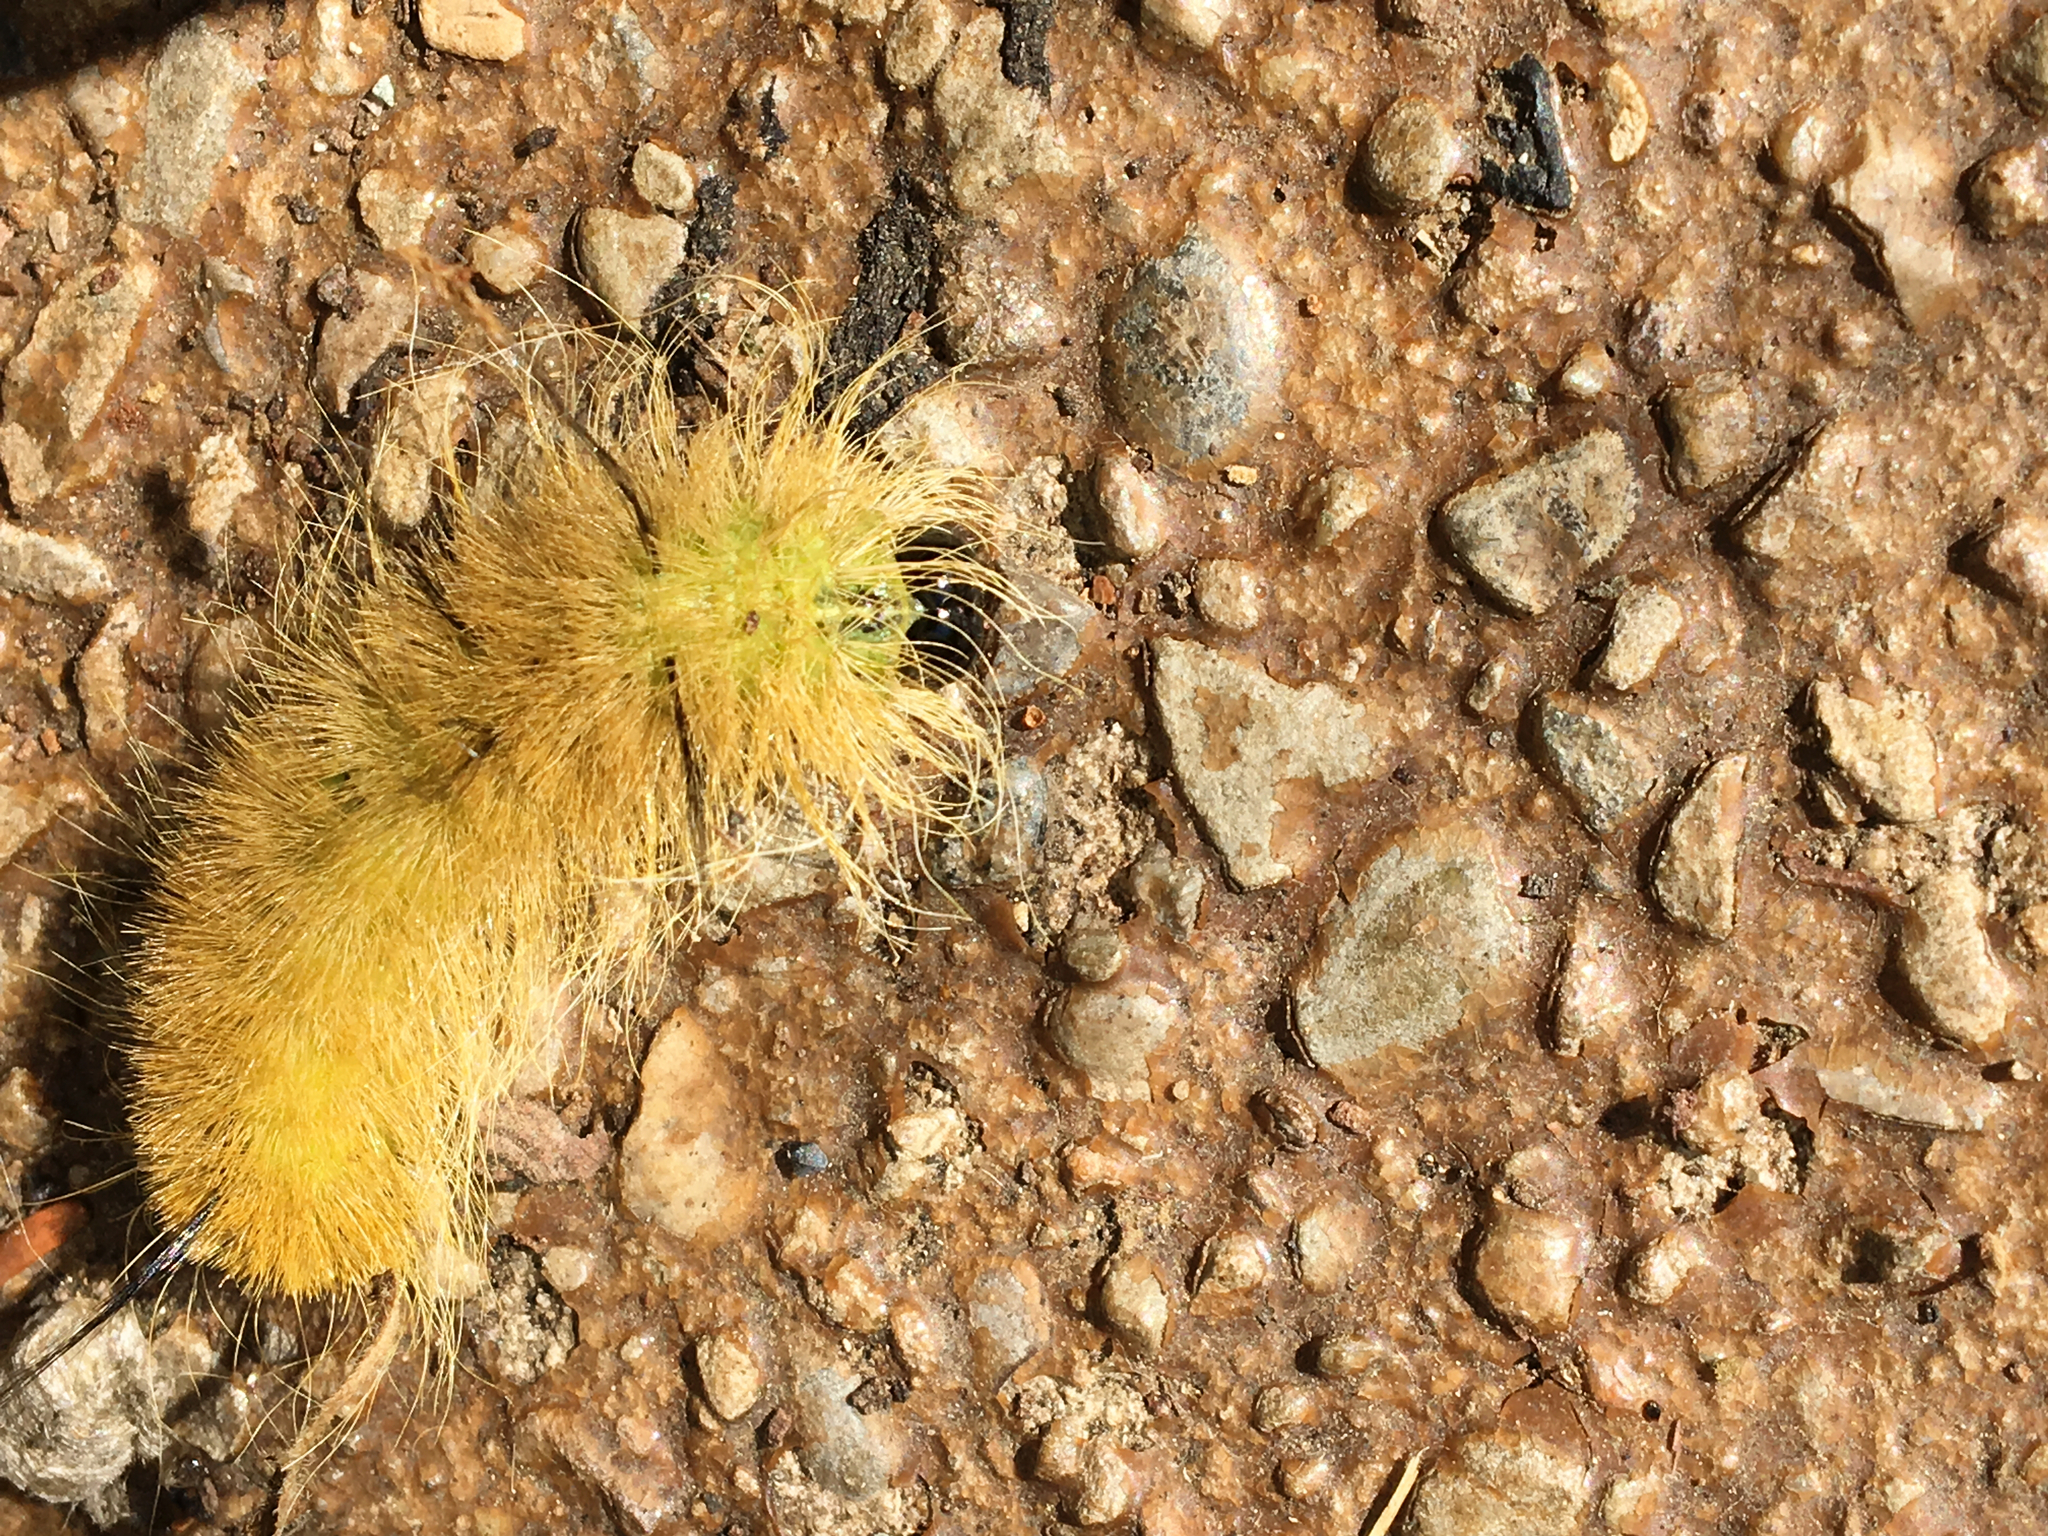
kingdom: Animalia
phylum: Arthropoda
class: Insecta
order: Lepidoptera
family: Noctuidae
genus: Acronicta
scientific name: Acronicta americana
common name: American dagger
